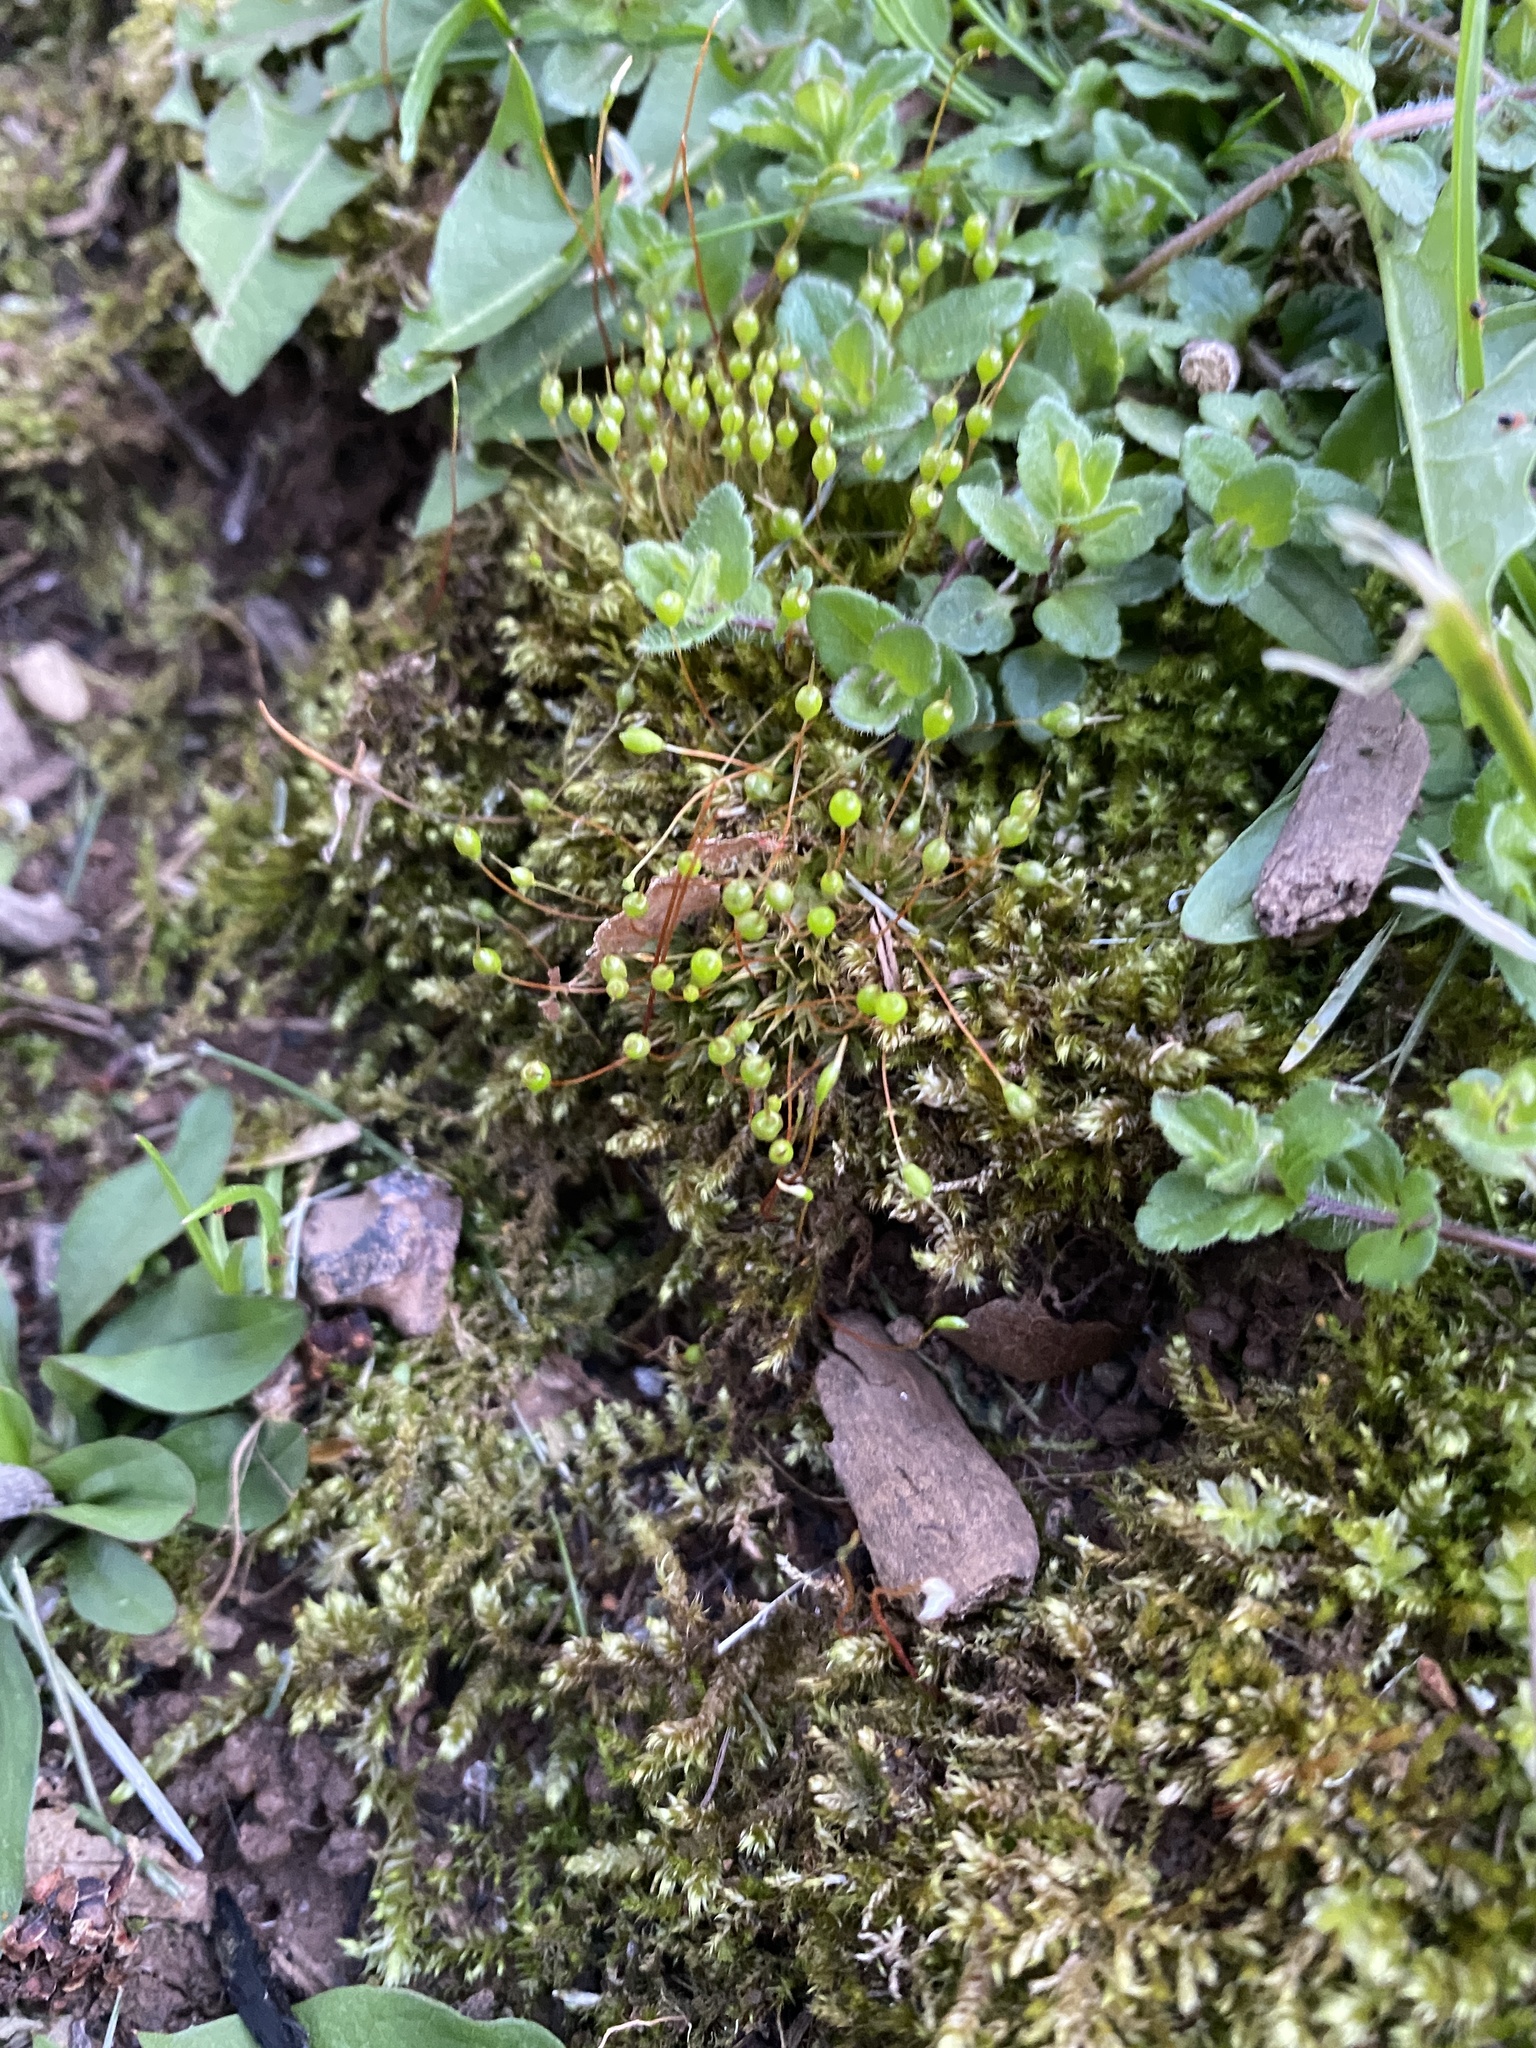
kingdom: Plantae
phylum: Bryophyta
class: Bryopsida
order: Funariales
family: Funariaceae
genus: Physcomitrium
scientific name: Physcomitrium pyriforme
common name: Common bladder-moss
